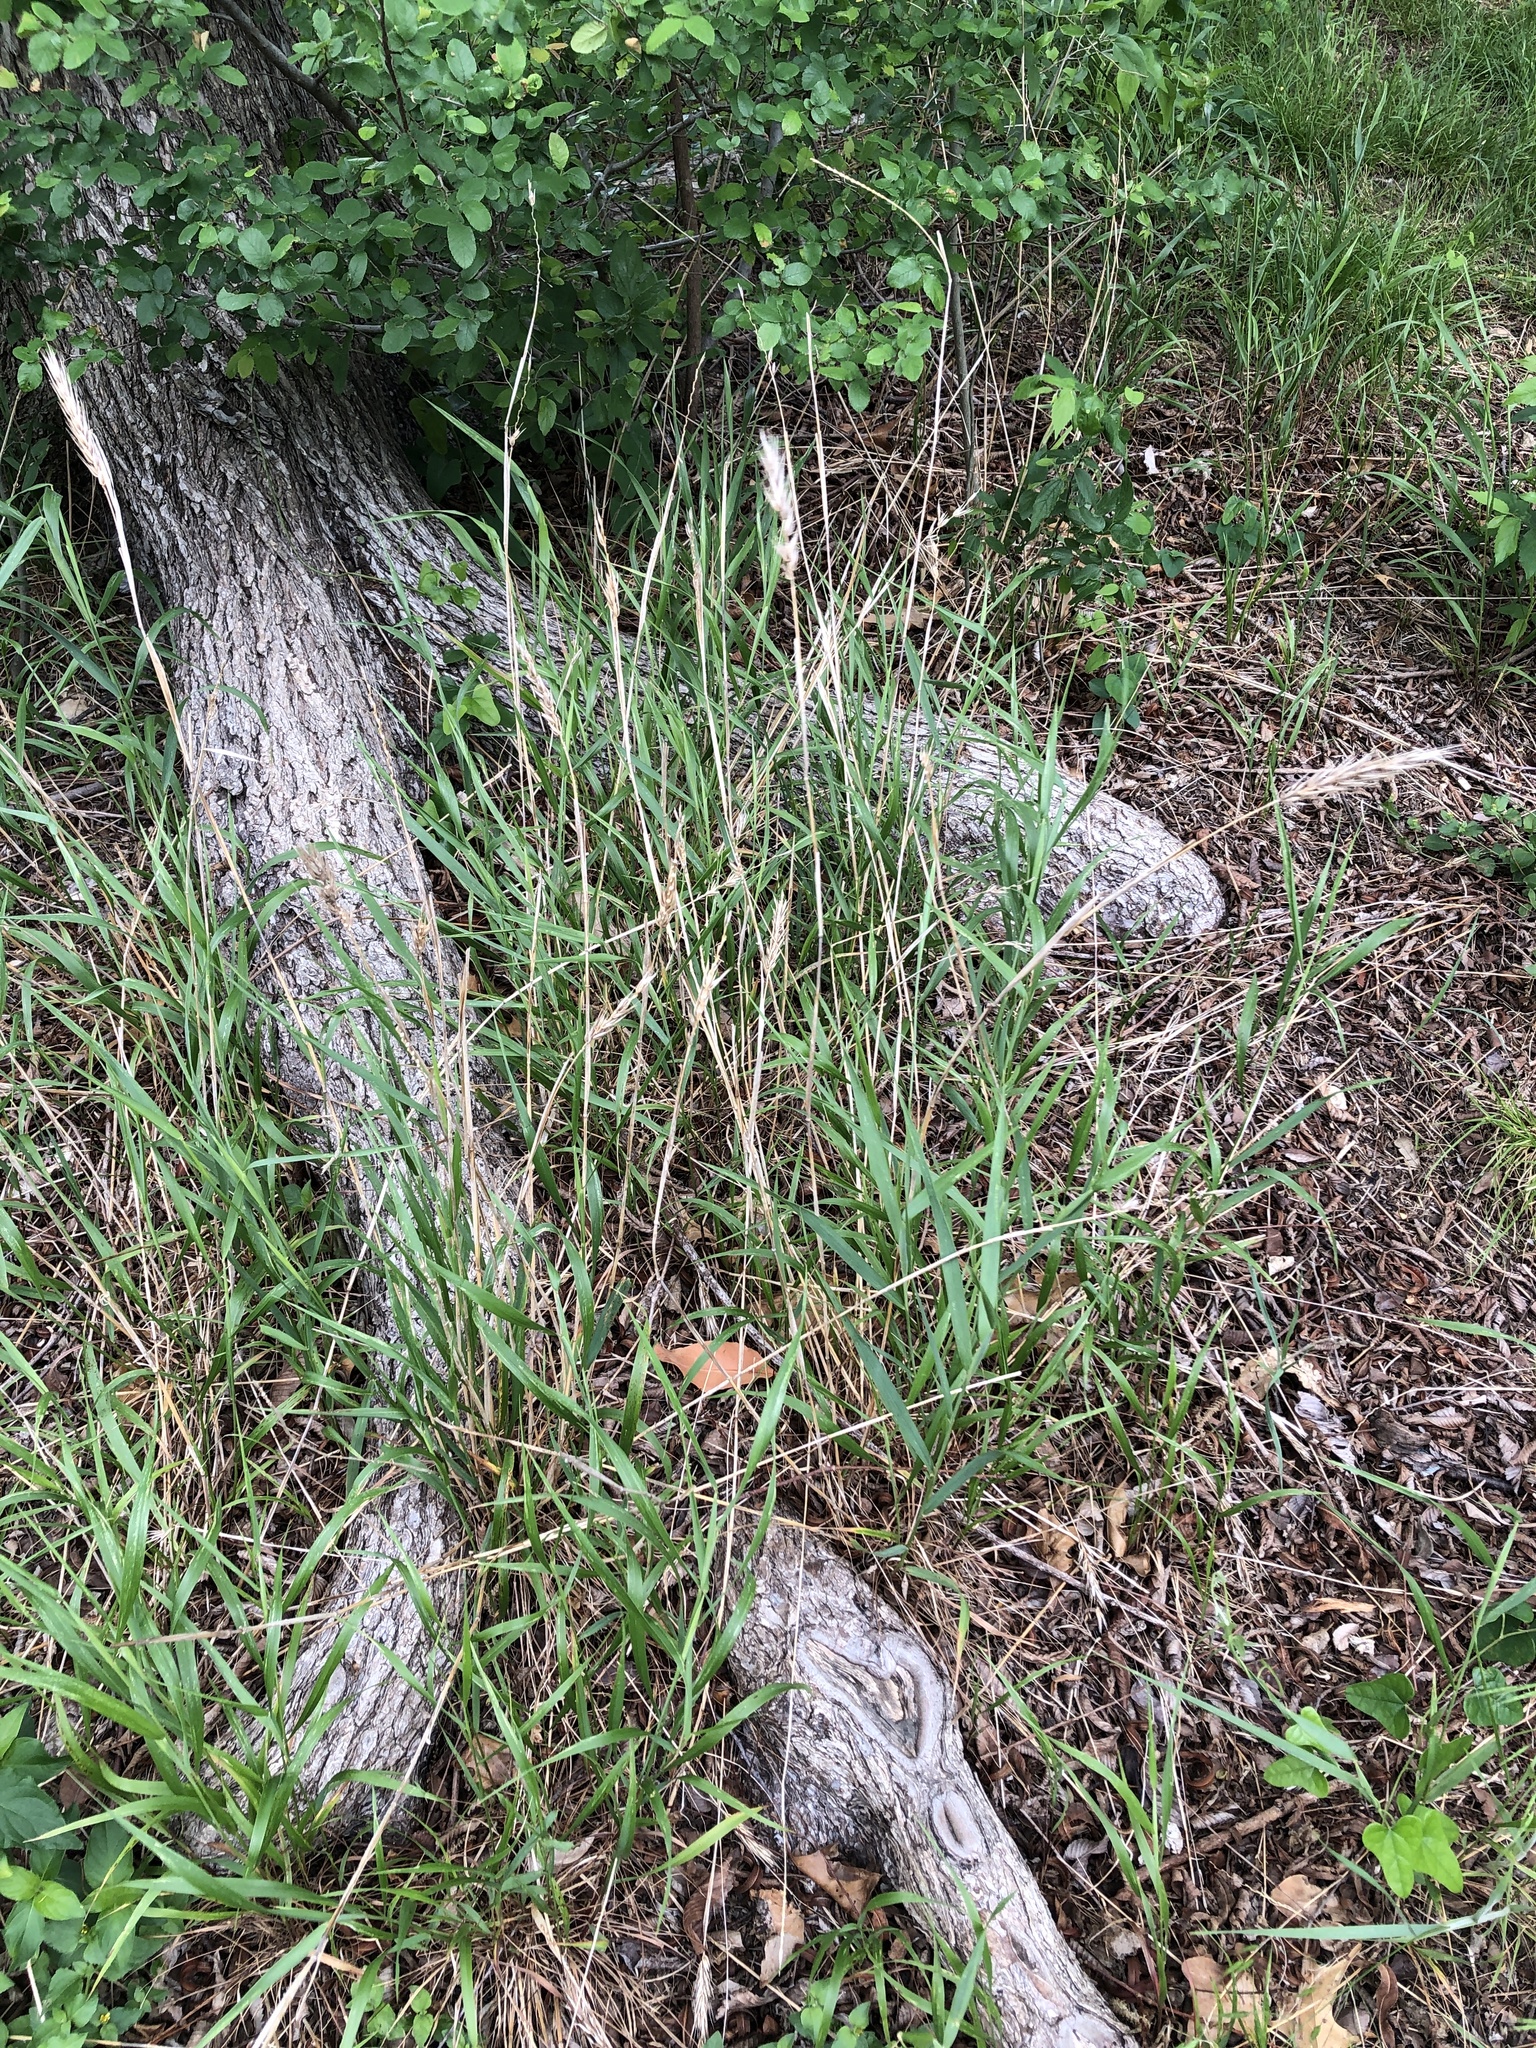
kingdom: Plantae
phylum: Tracheophyta
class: Liliopsida
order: Poales
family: Poaceae
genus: Elymus
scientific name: Elymus virginicus
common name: Common eastern wildrye
